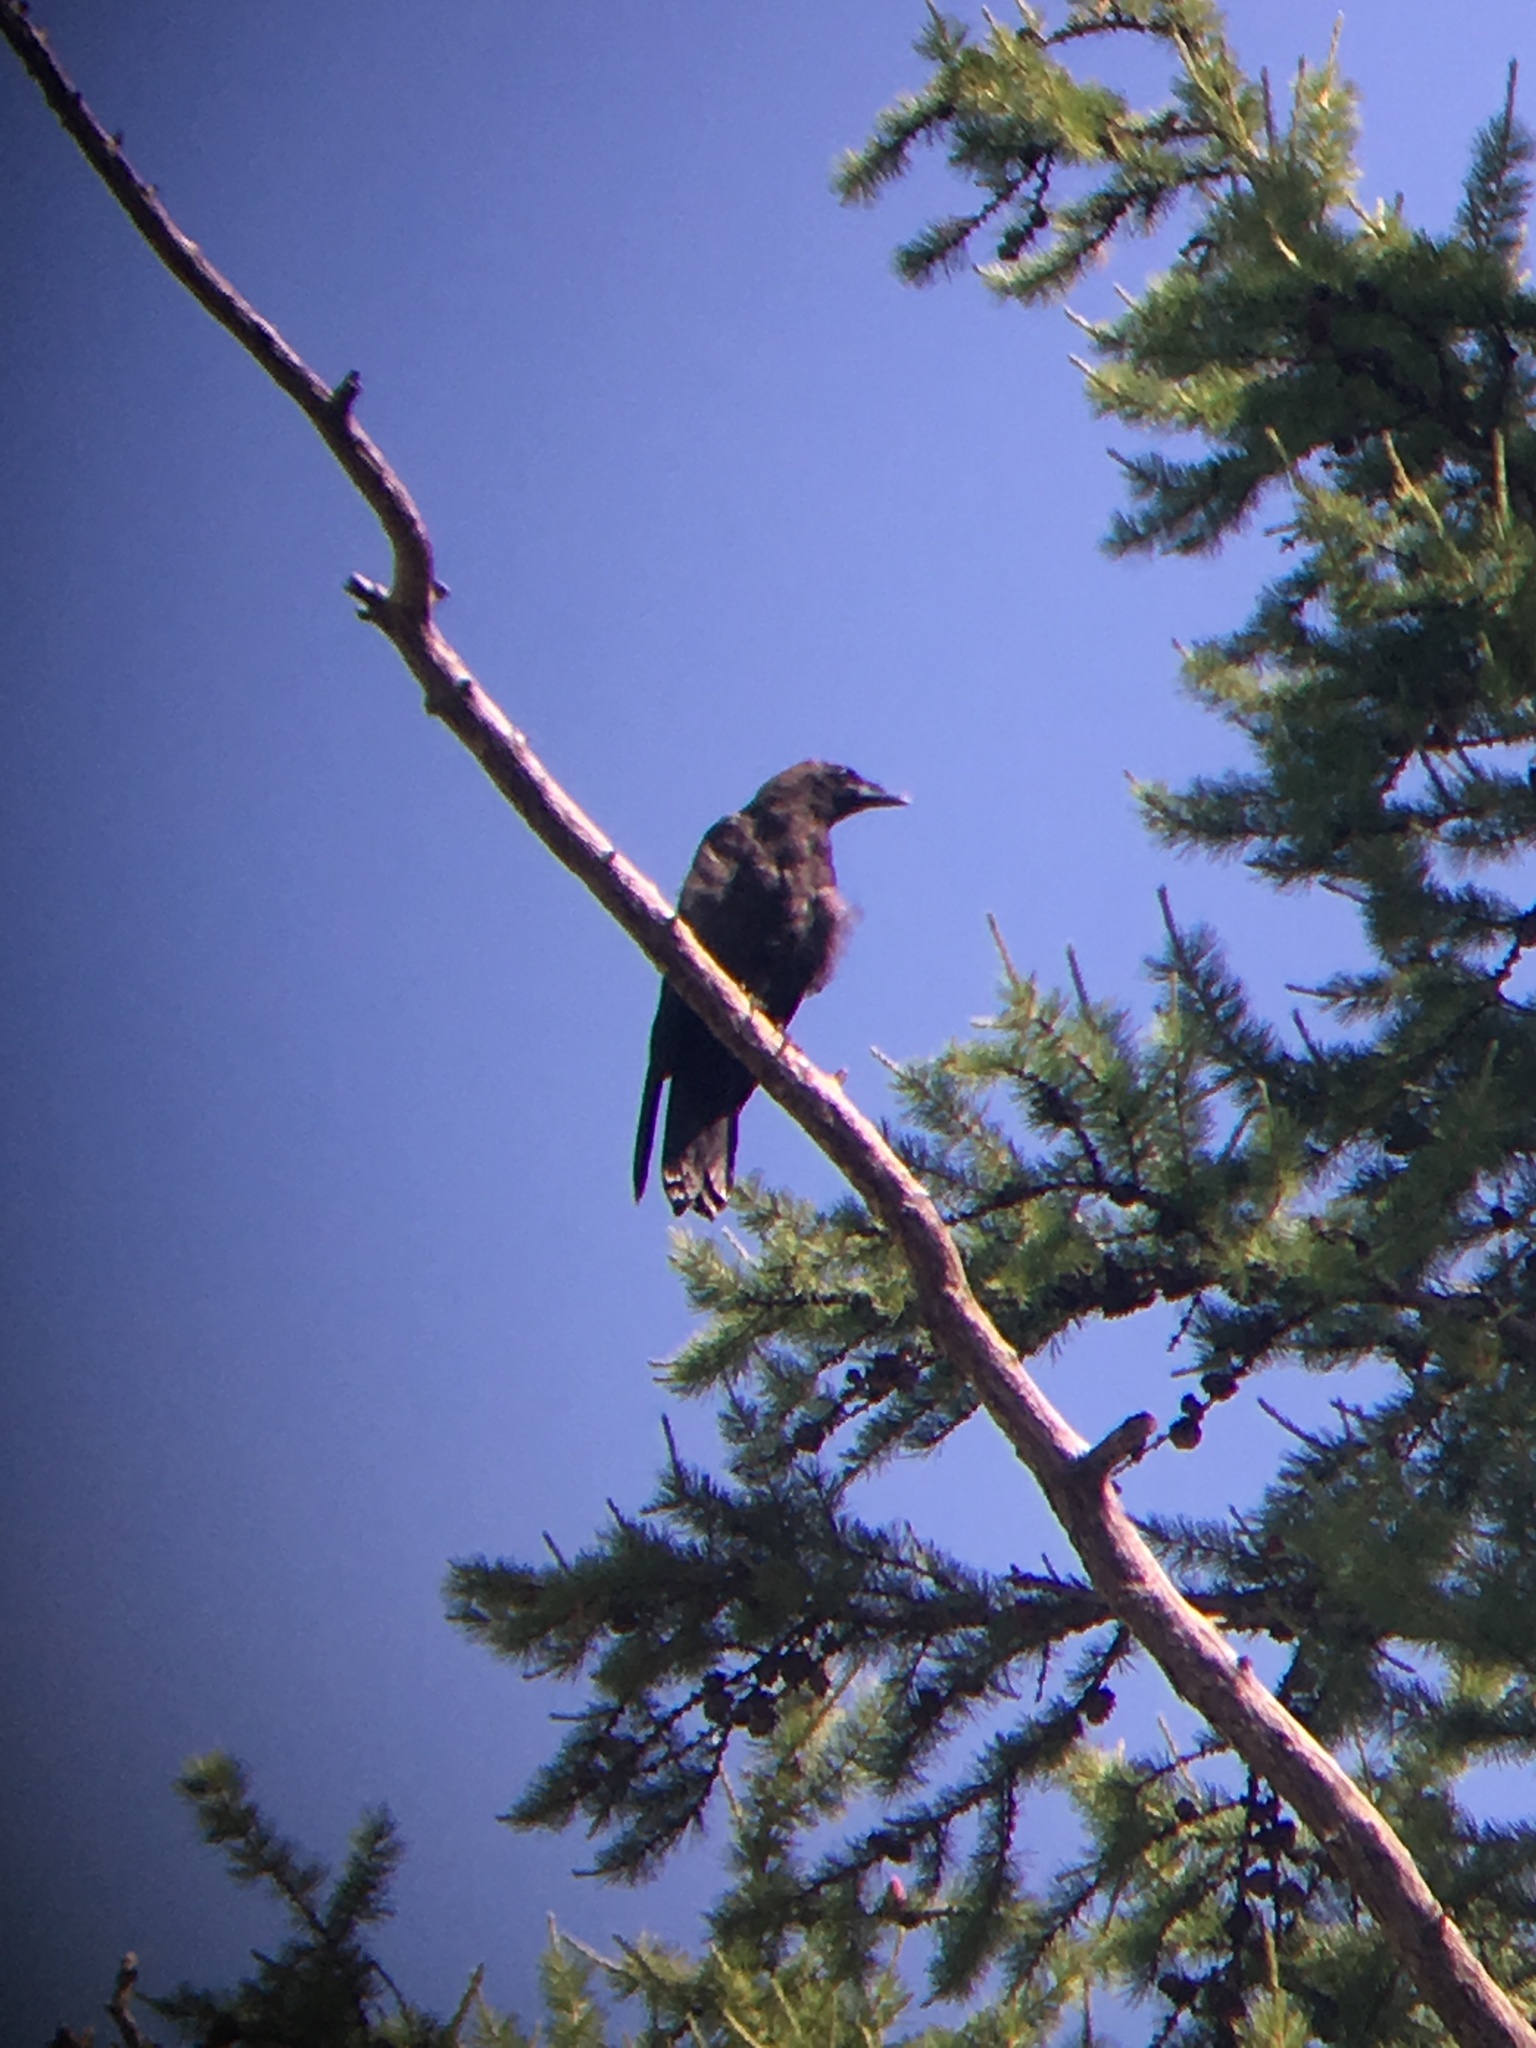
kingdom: Animalia
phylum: Chordata
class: Aves
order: Passeriformes
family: Corvidae
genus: Corvus
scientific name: Corvus corone
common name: Carrion crow
